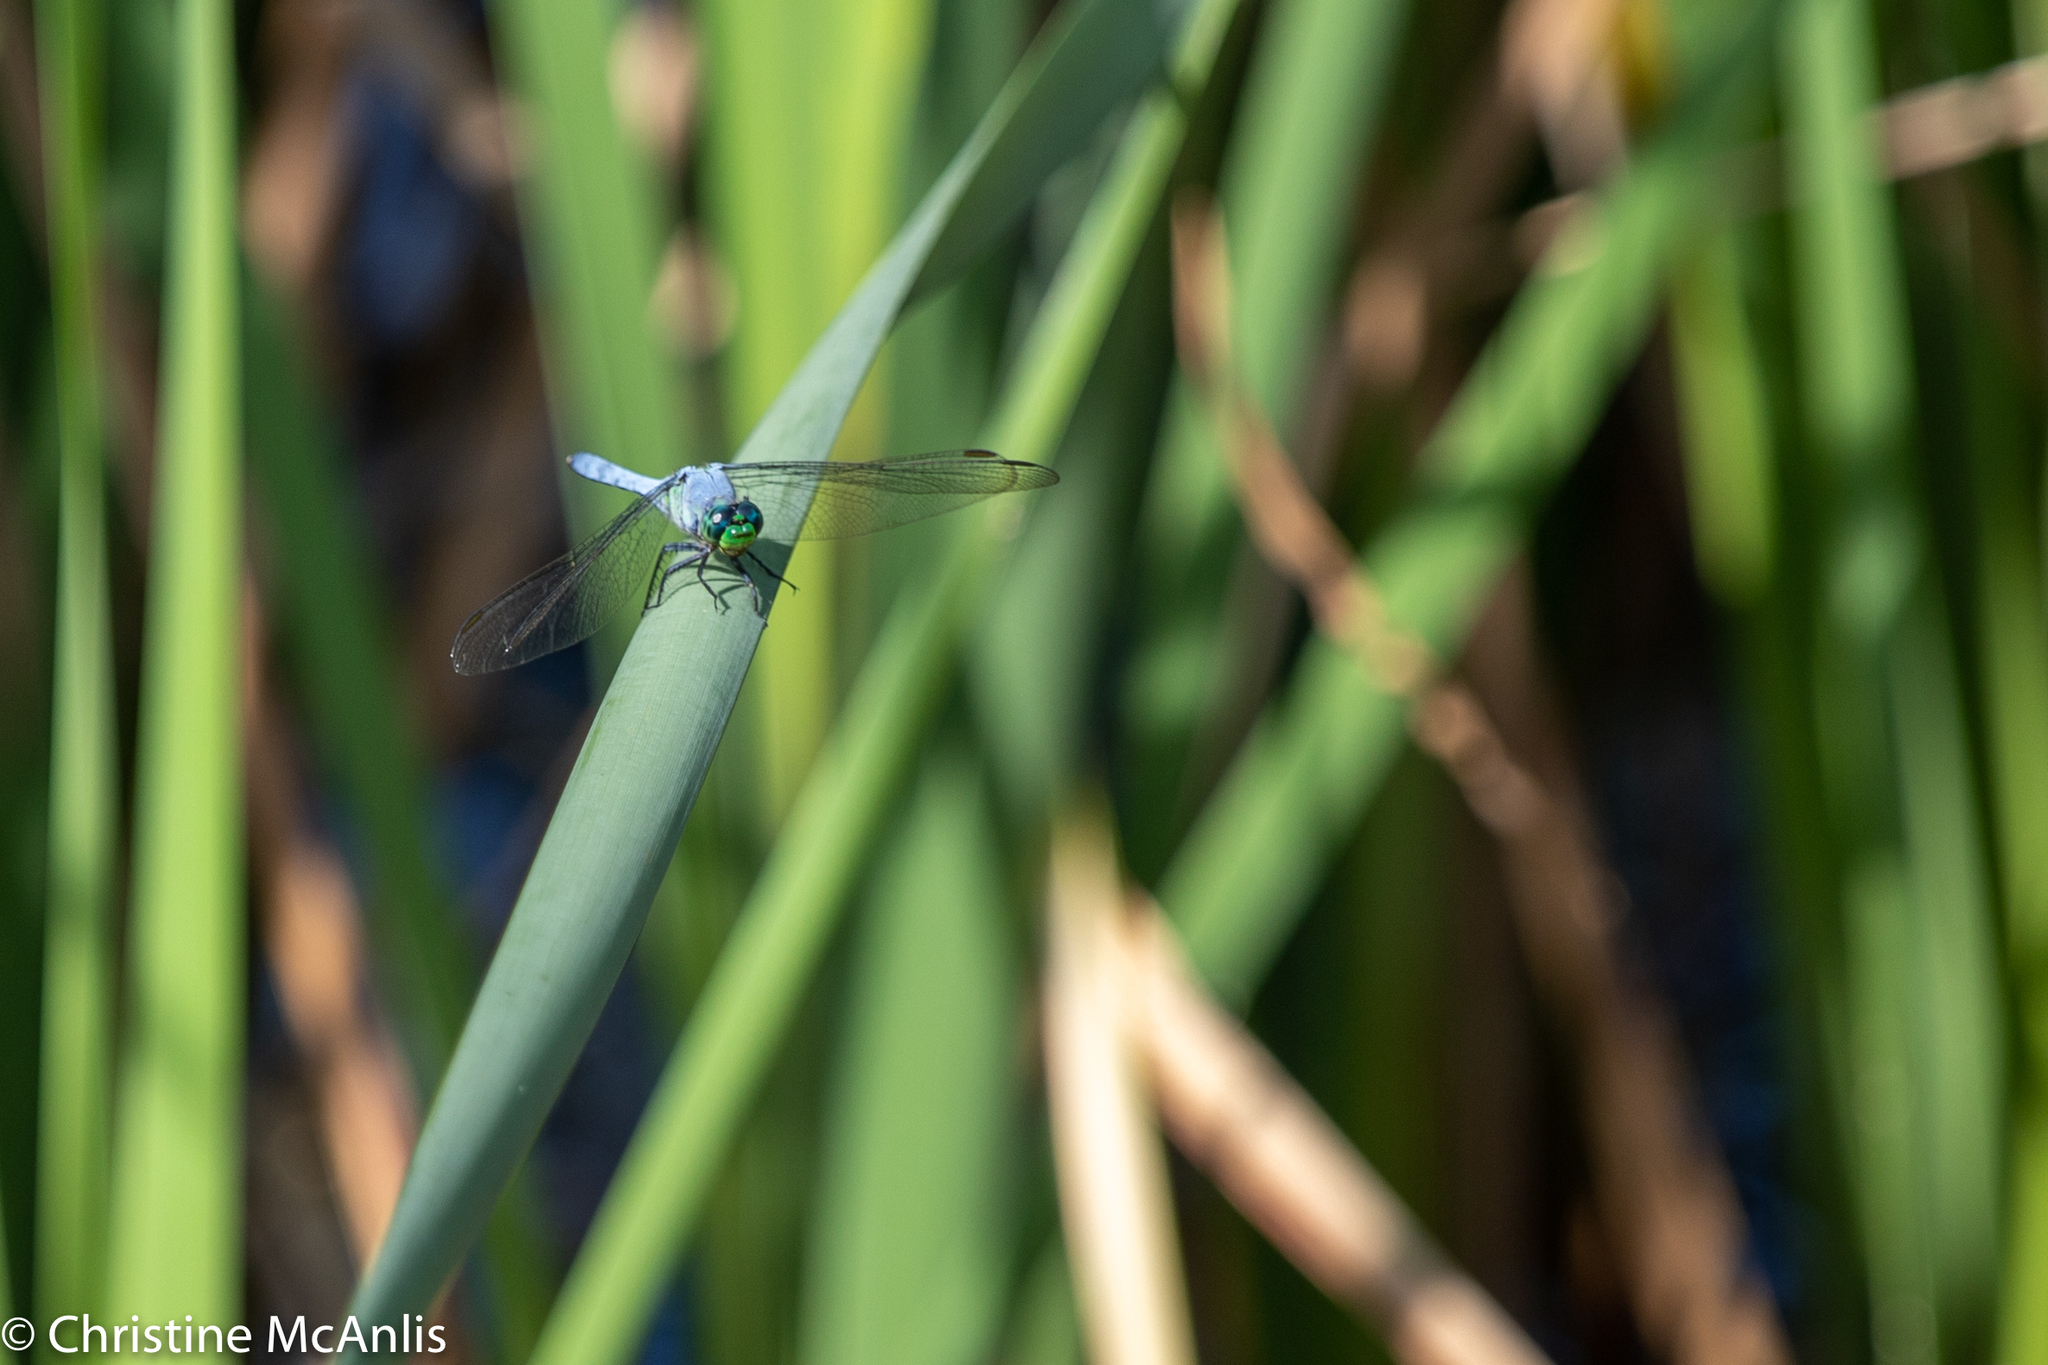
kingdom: Animalia
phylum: Arthropoda
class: Insecta
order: Odonata
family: Libellulidae
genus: Erythemis
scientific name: Erythemis simplicicollis
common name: Eastern pondhawk
